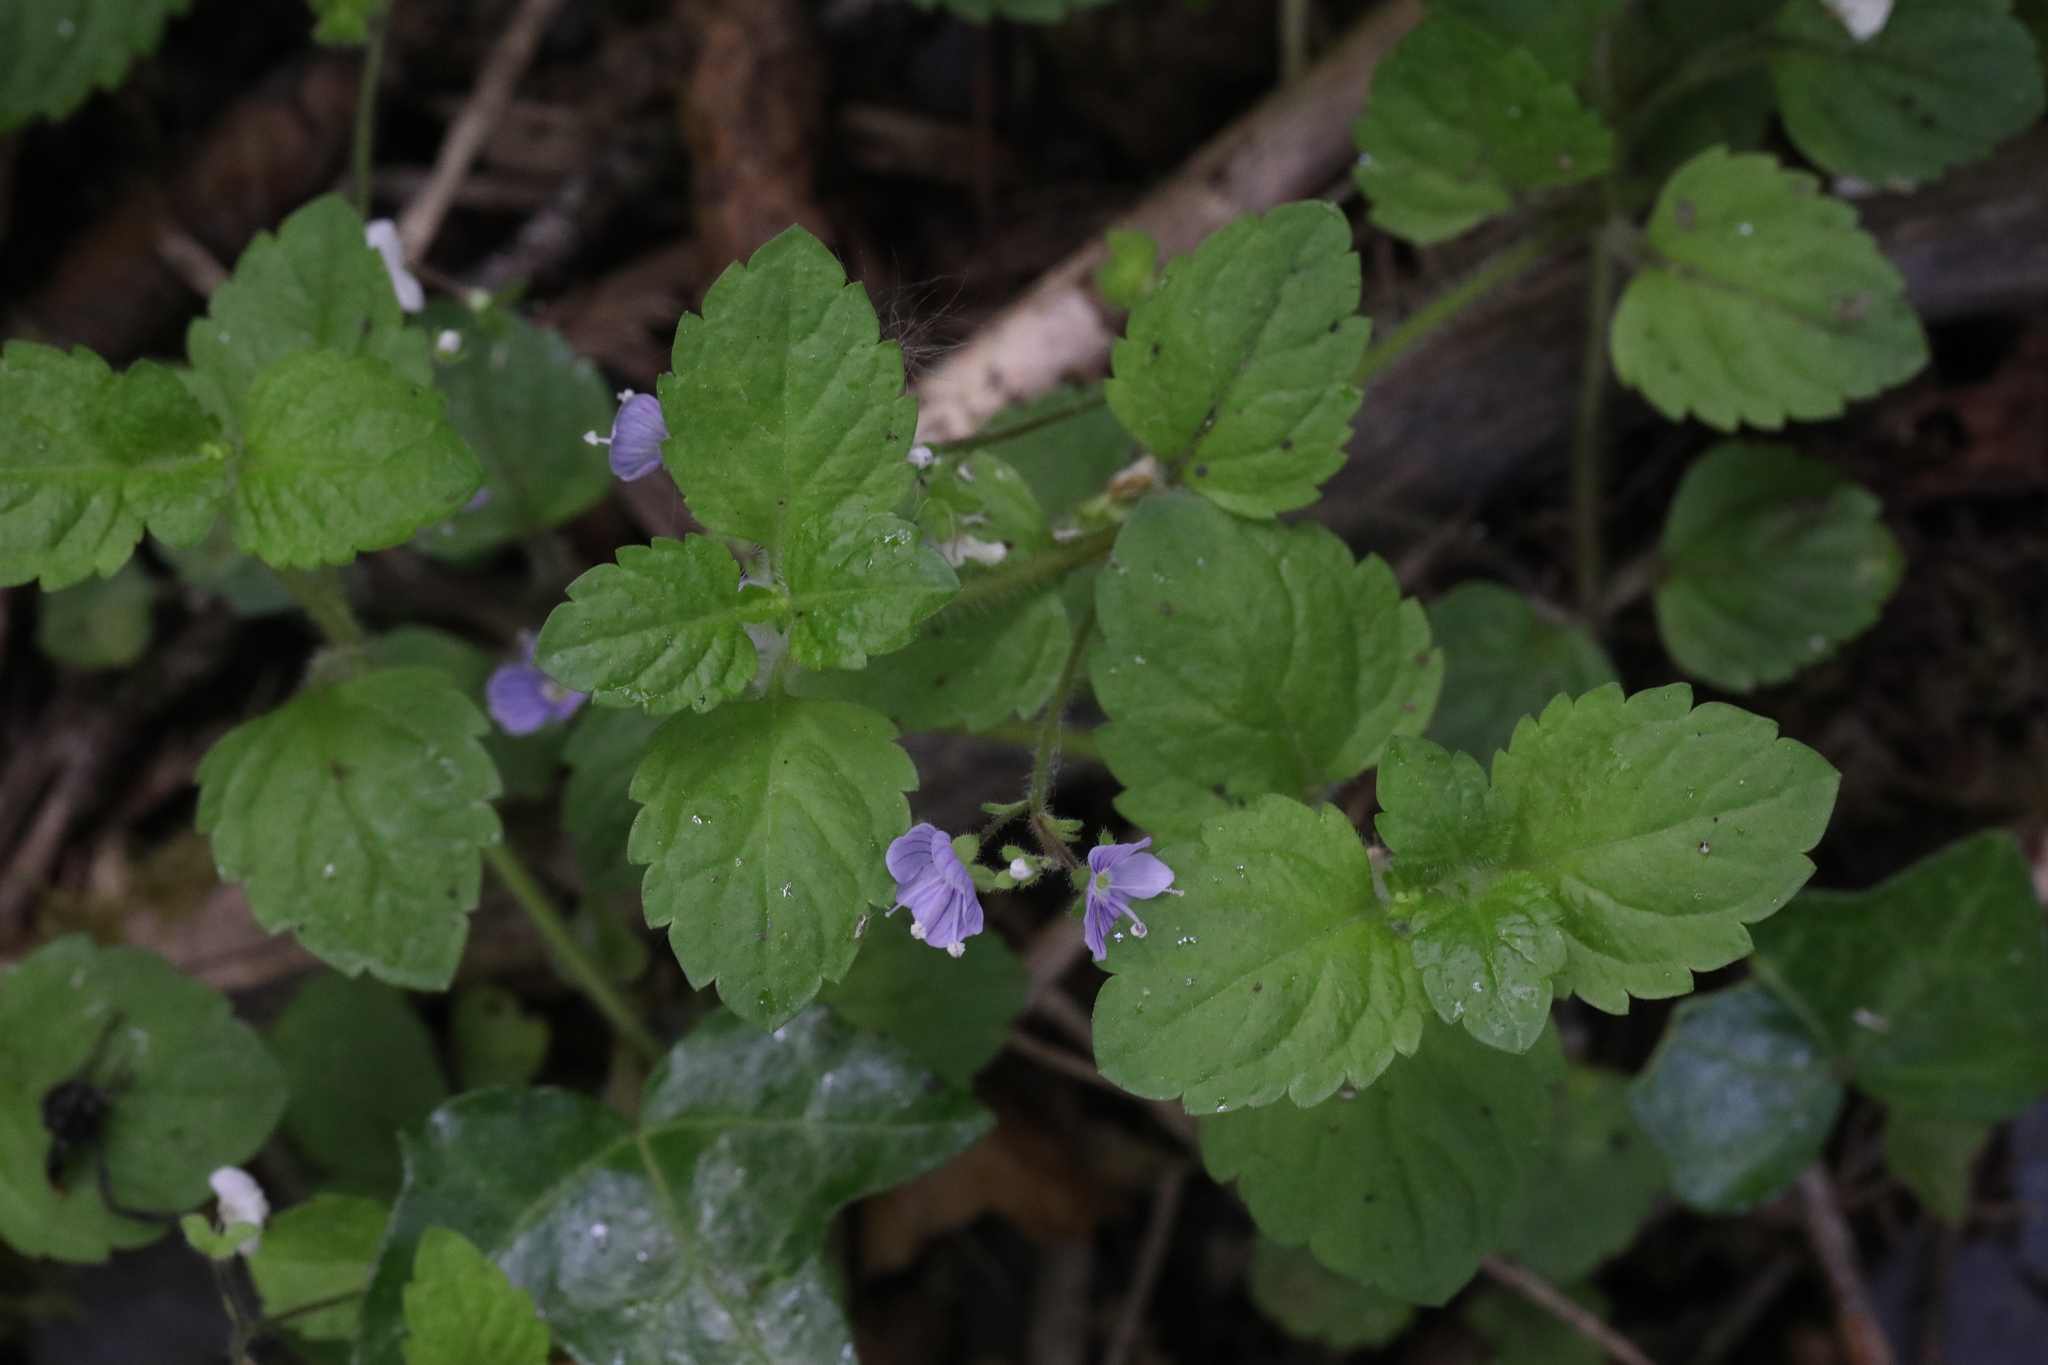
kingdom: Plantae
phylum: Tracheophyta
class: Magnoliopsida
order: Lamiales
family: Plantaginaceae
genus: Veronica
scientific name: Veronica montana
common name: Wood speedwell
